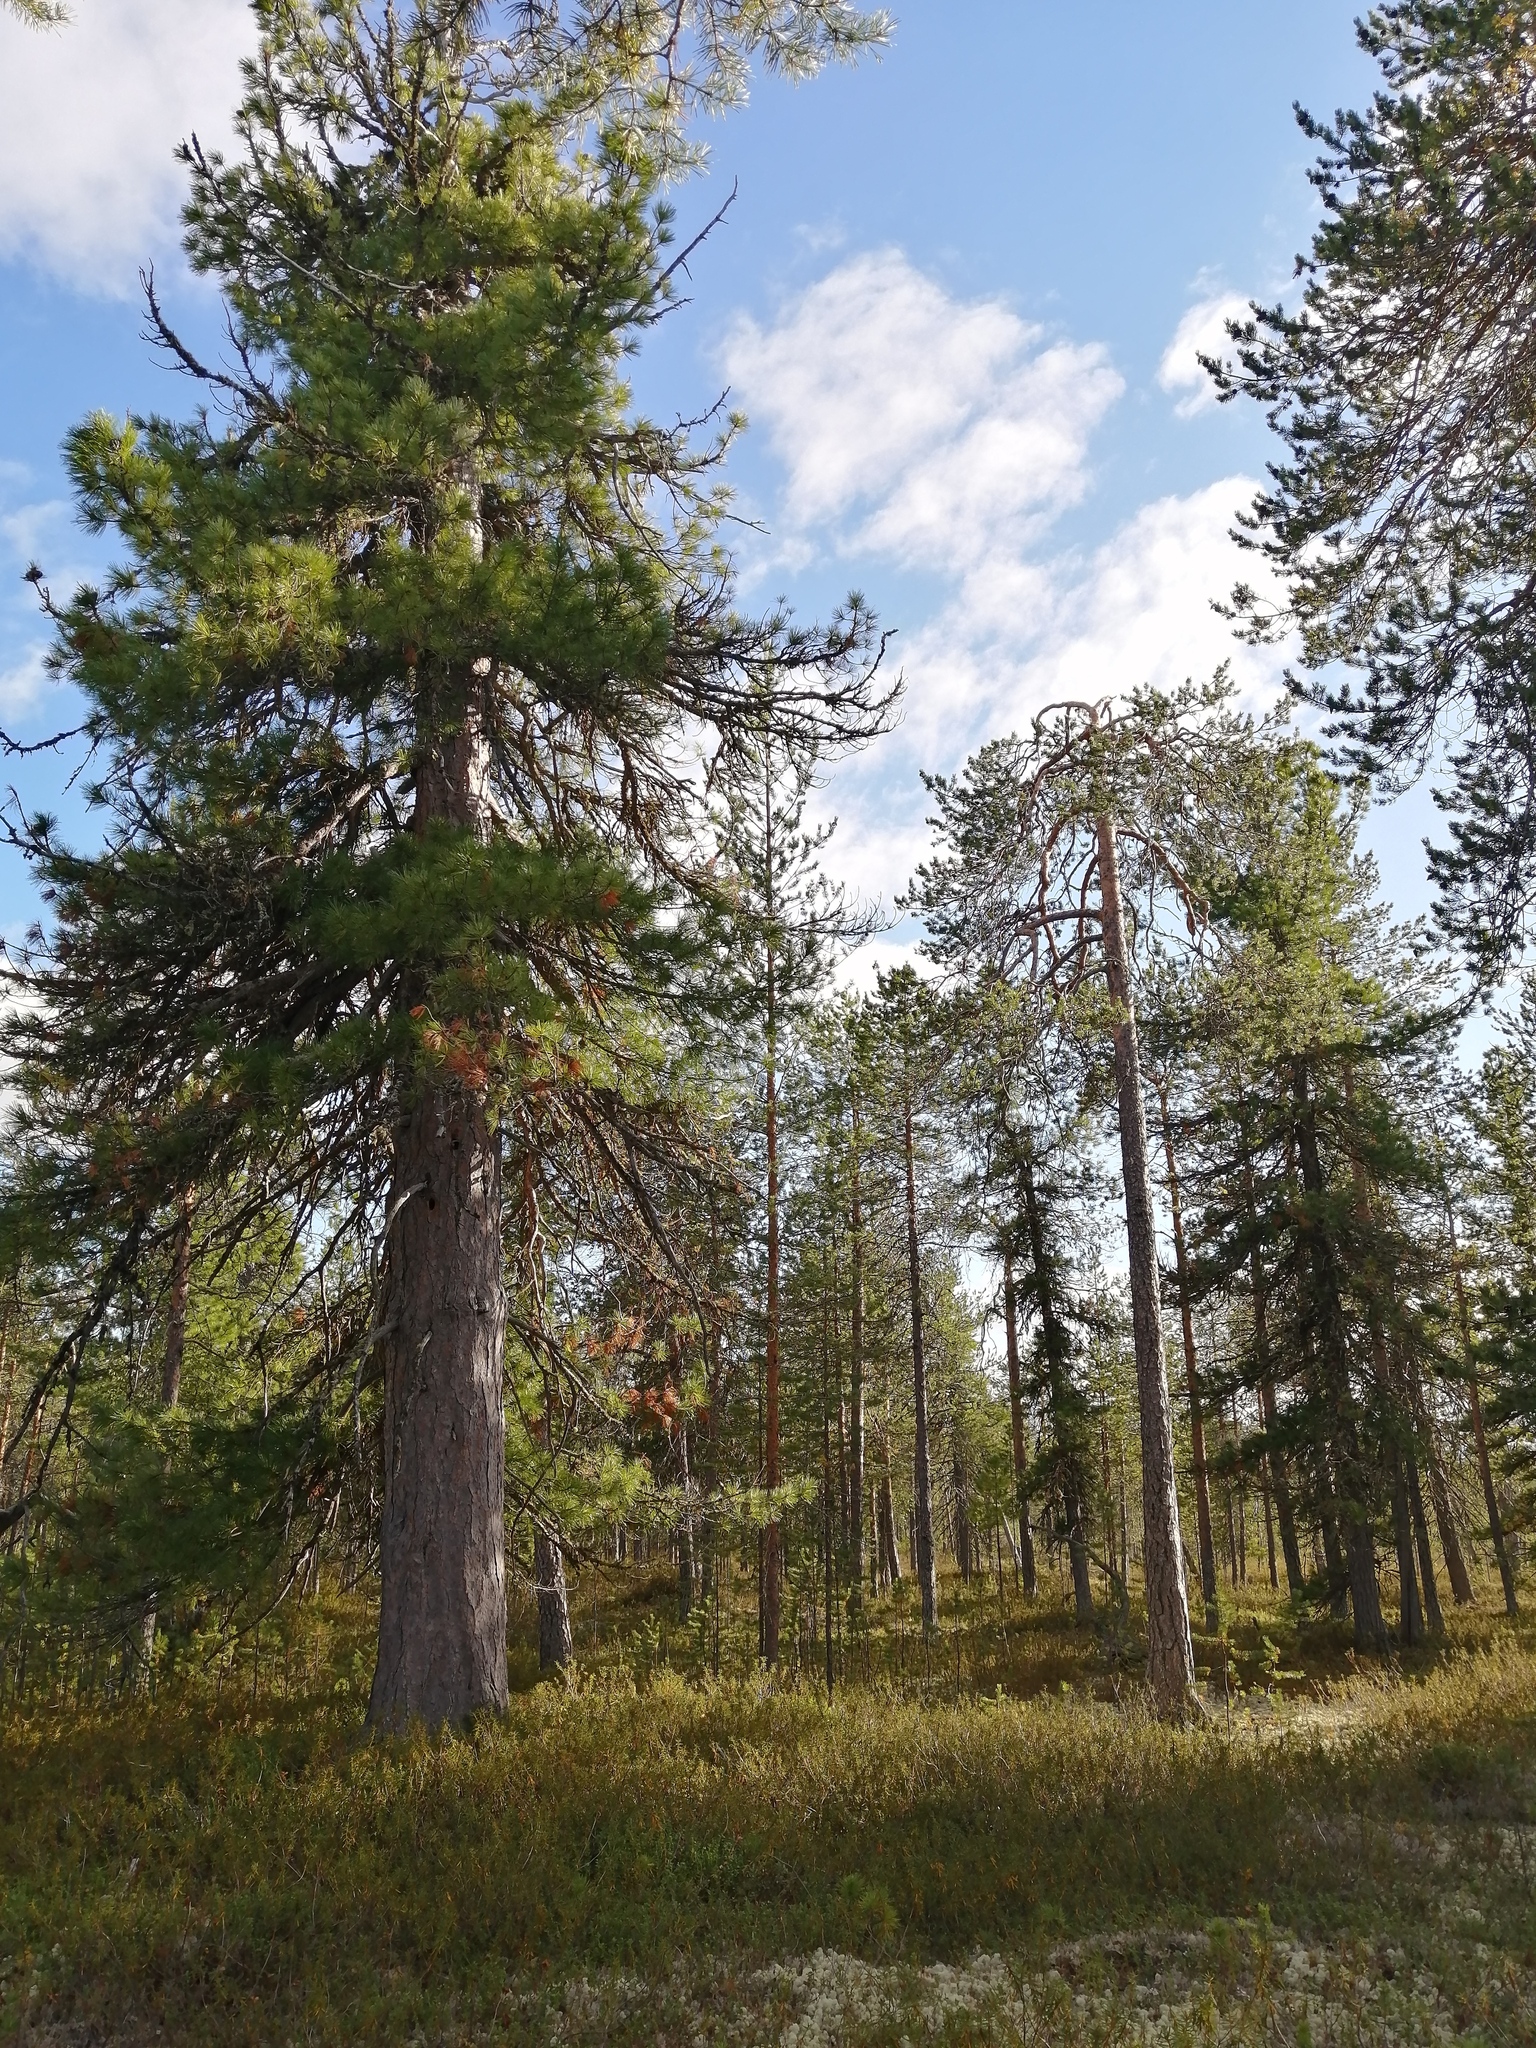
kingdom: Plantae
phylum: Tracheophyta
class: Pinopsida
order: Pinales
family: Pinaceae
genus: Pinus
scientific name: Pinus sibirica
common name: Siberian pine
